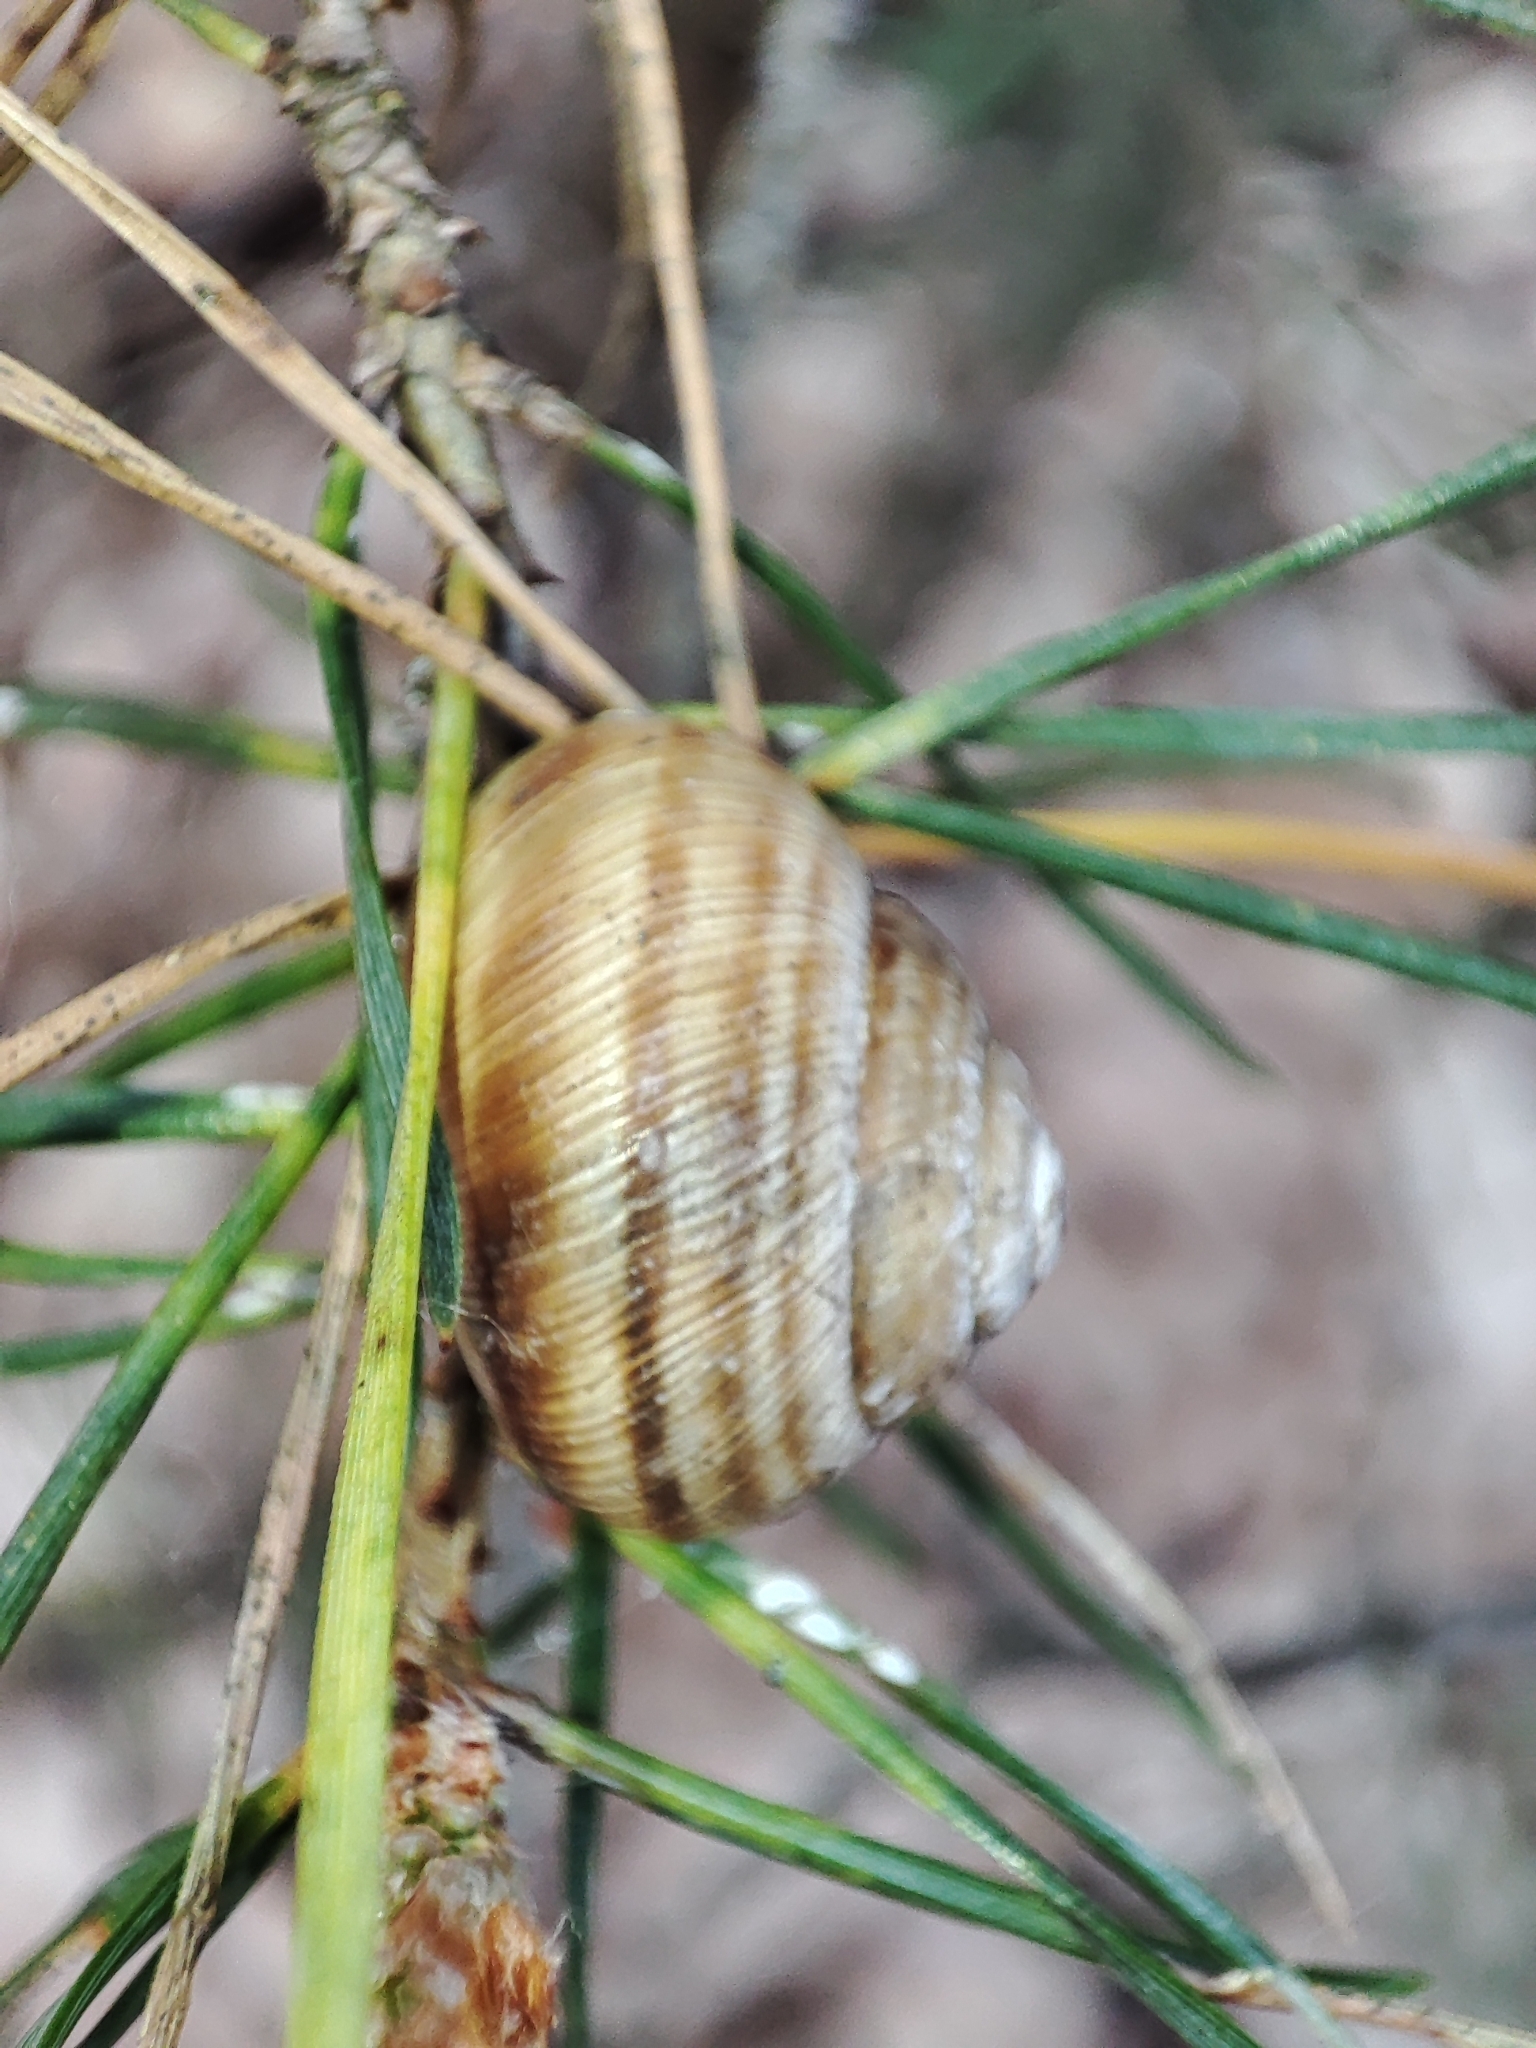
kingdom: Animalia
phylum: Mollusca
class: Gastropoda
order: Stylommatophora
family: Helicidae
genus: Caucasotachea
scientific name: Caucasotachea vindobonensis
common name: European helicid land snail
